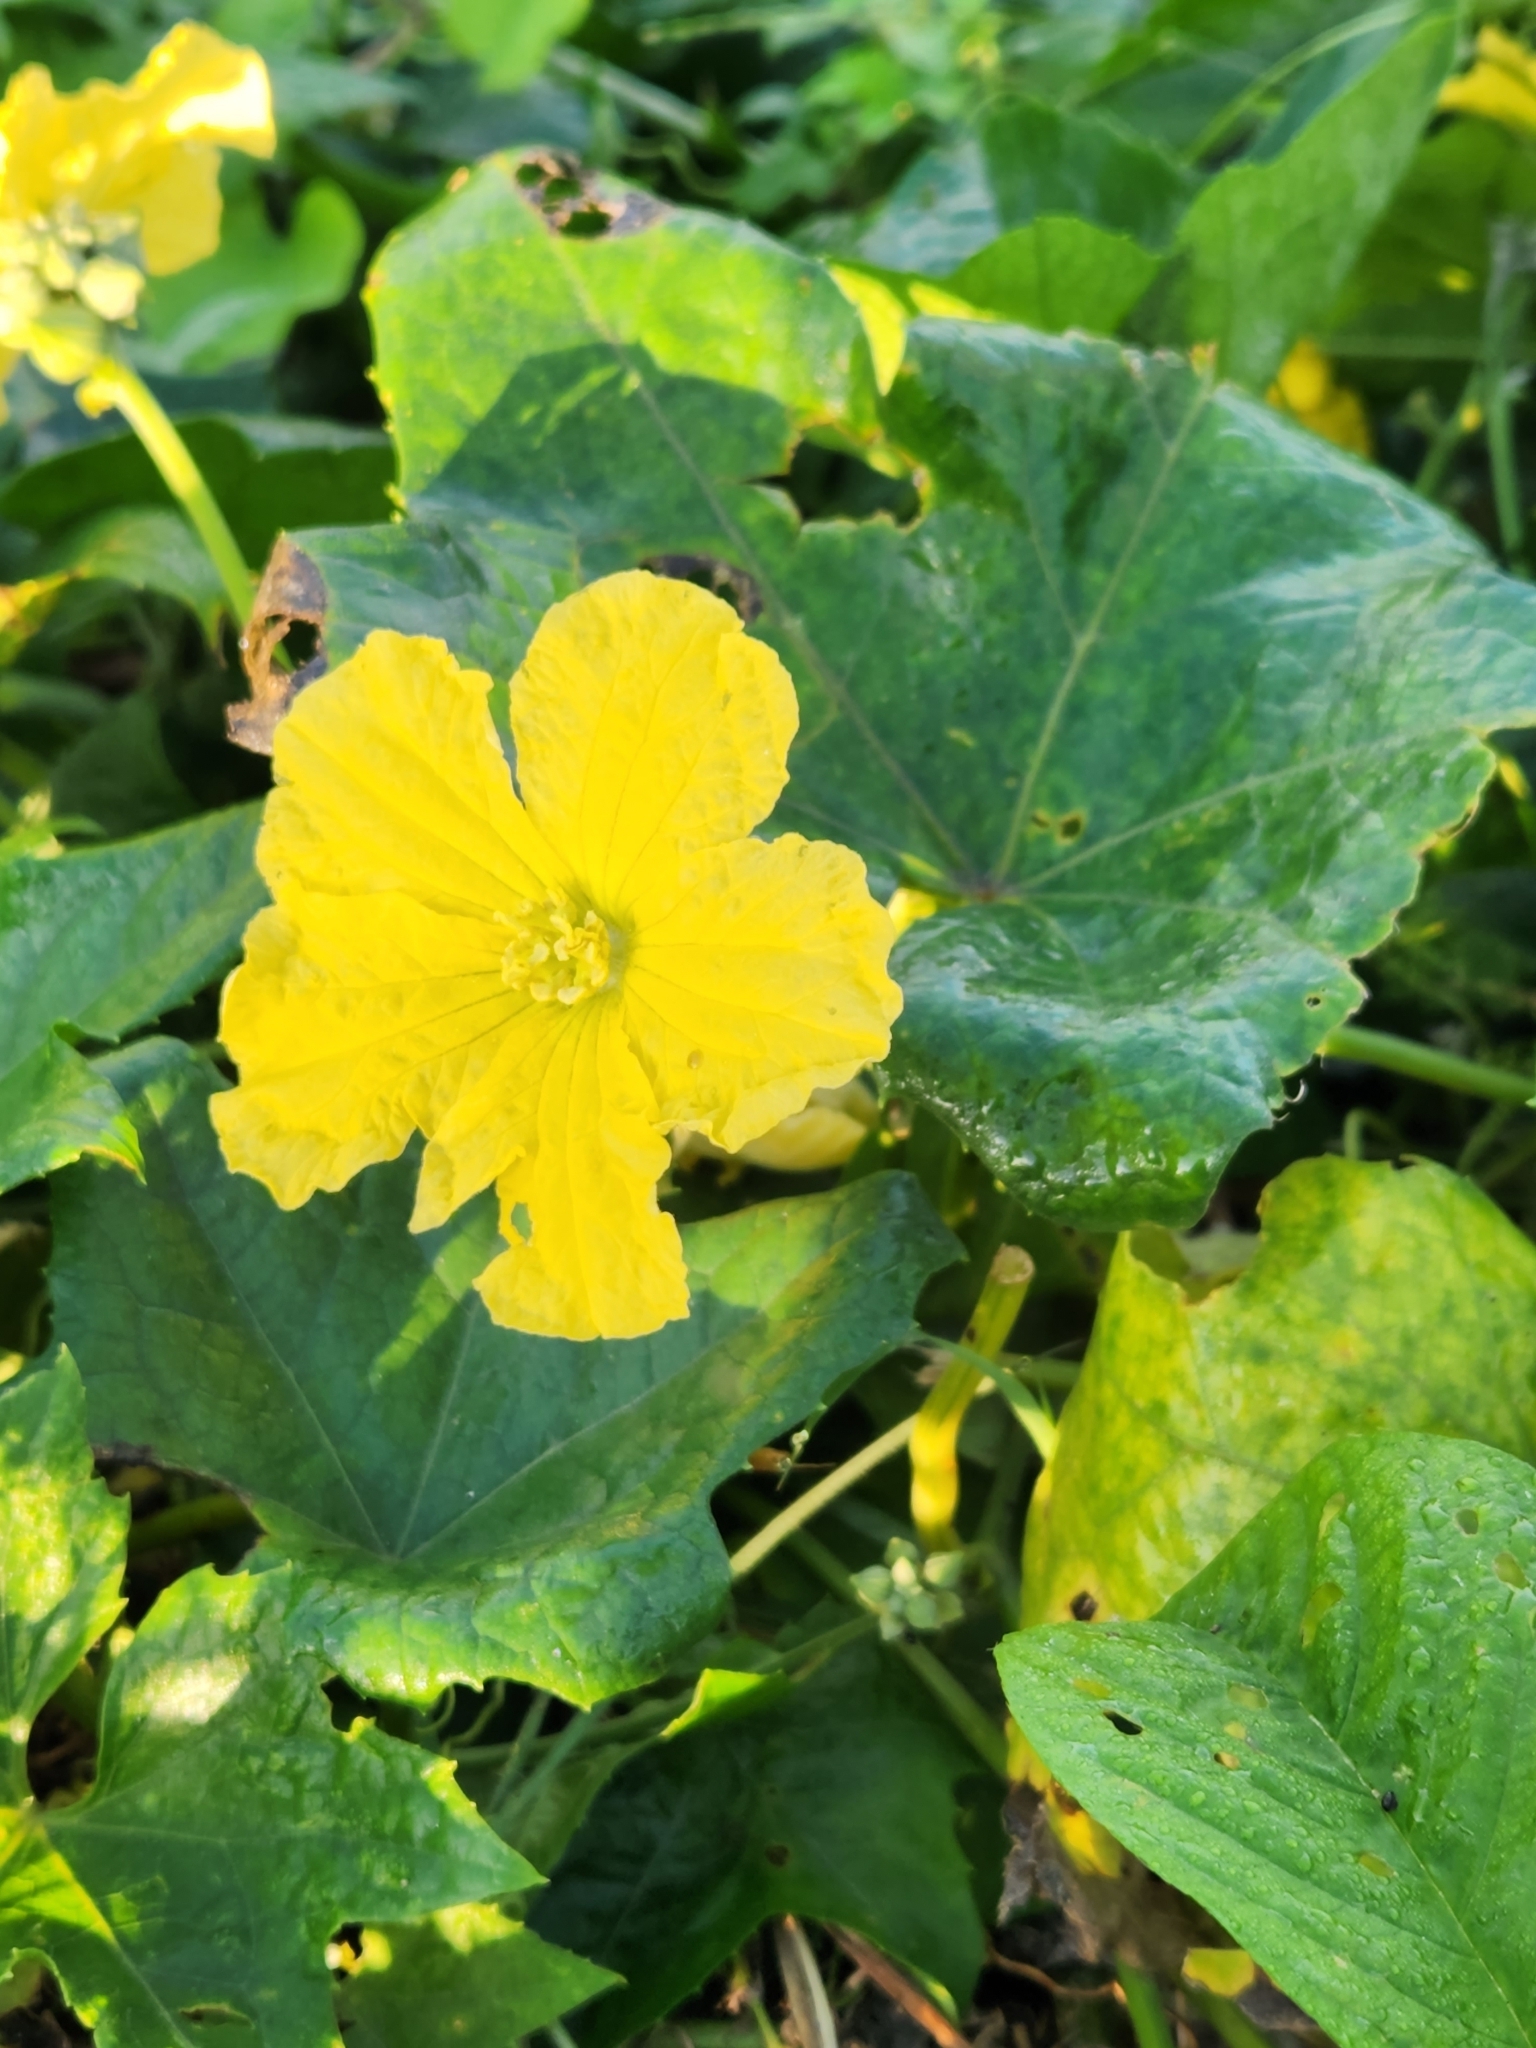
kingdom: Plantae
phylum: Tracheophyta
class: Magnoliopsida
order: Cucurbitales
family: Cucurbitaceae
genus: Luffa
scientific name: Luffa aegyptiaca
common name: Sponge gourd
